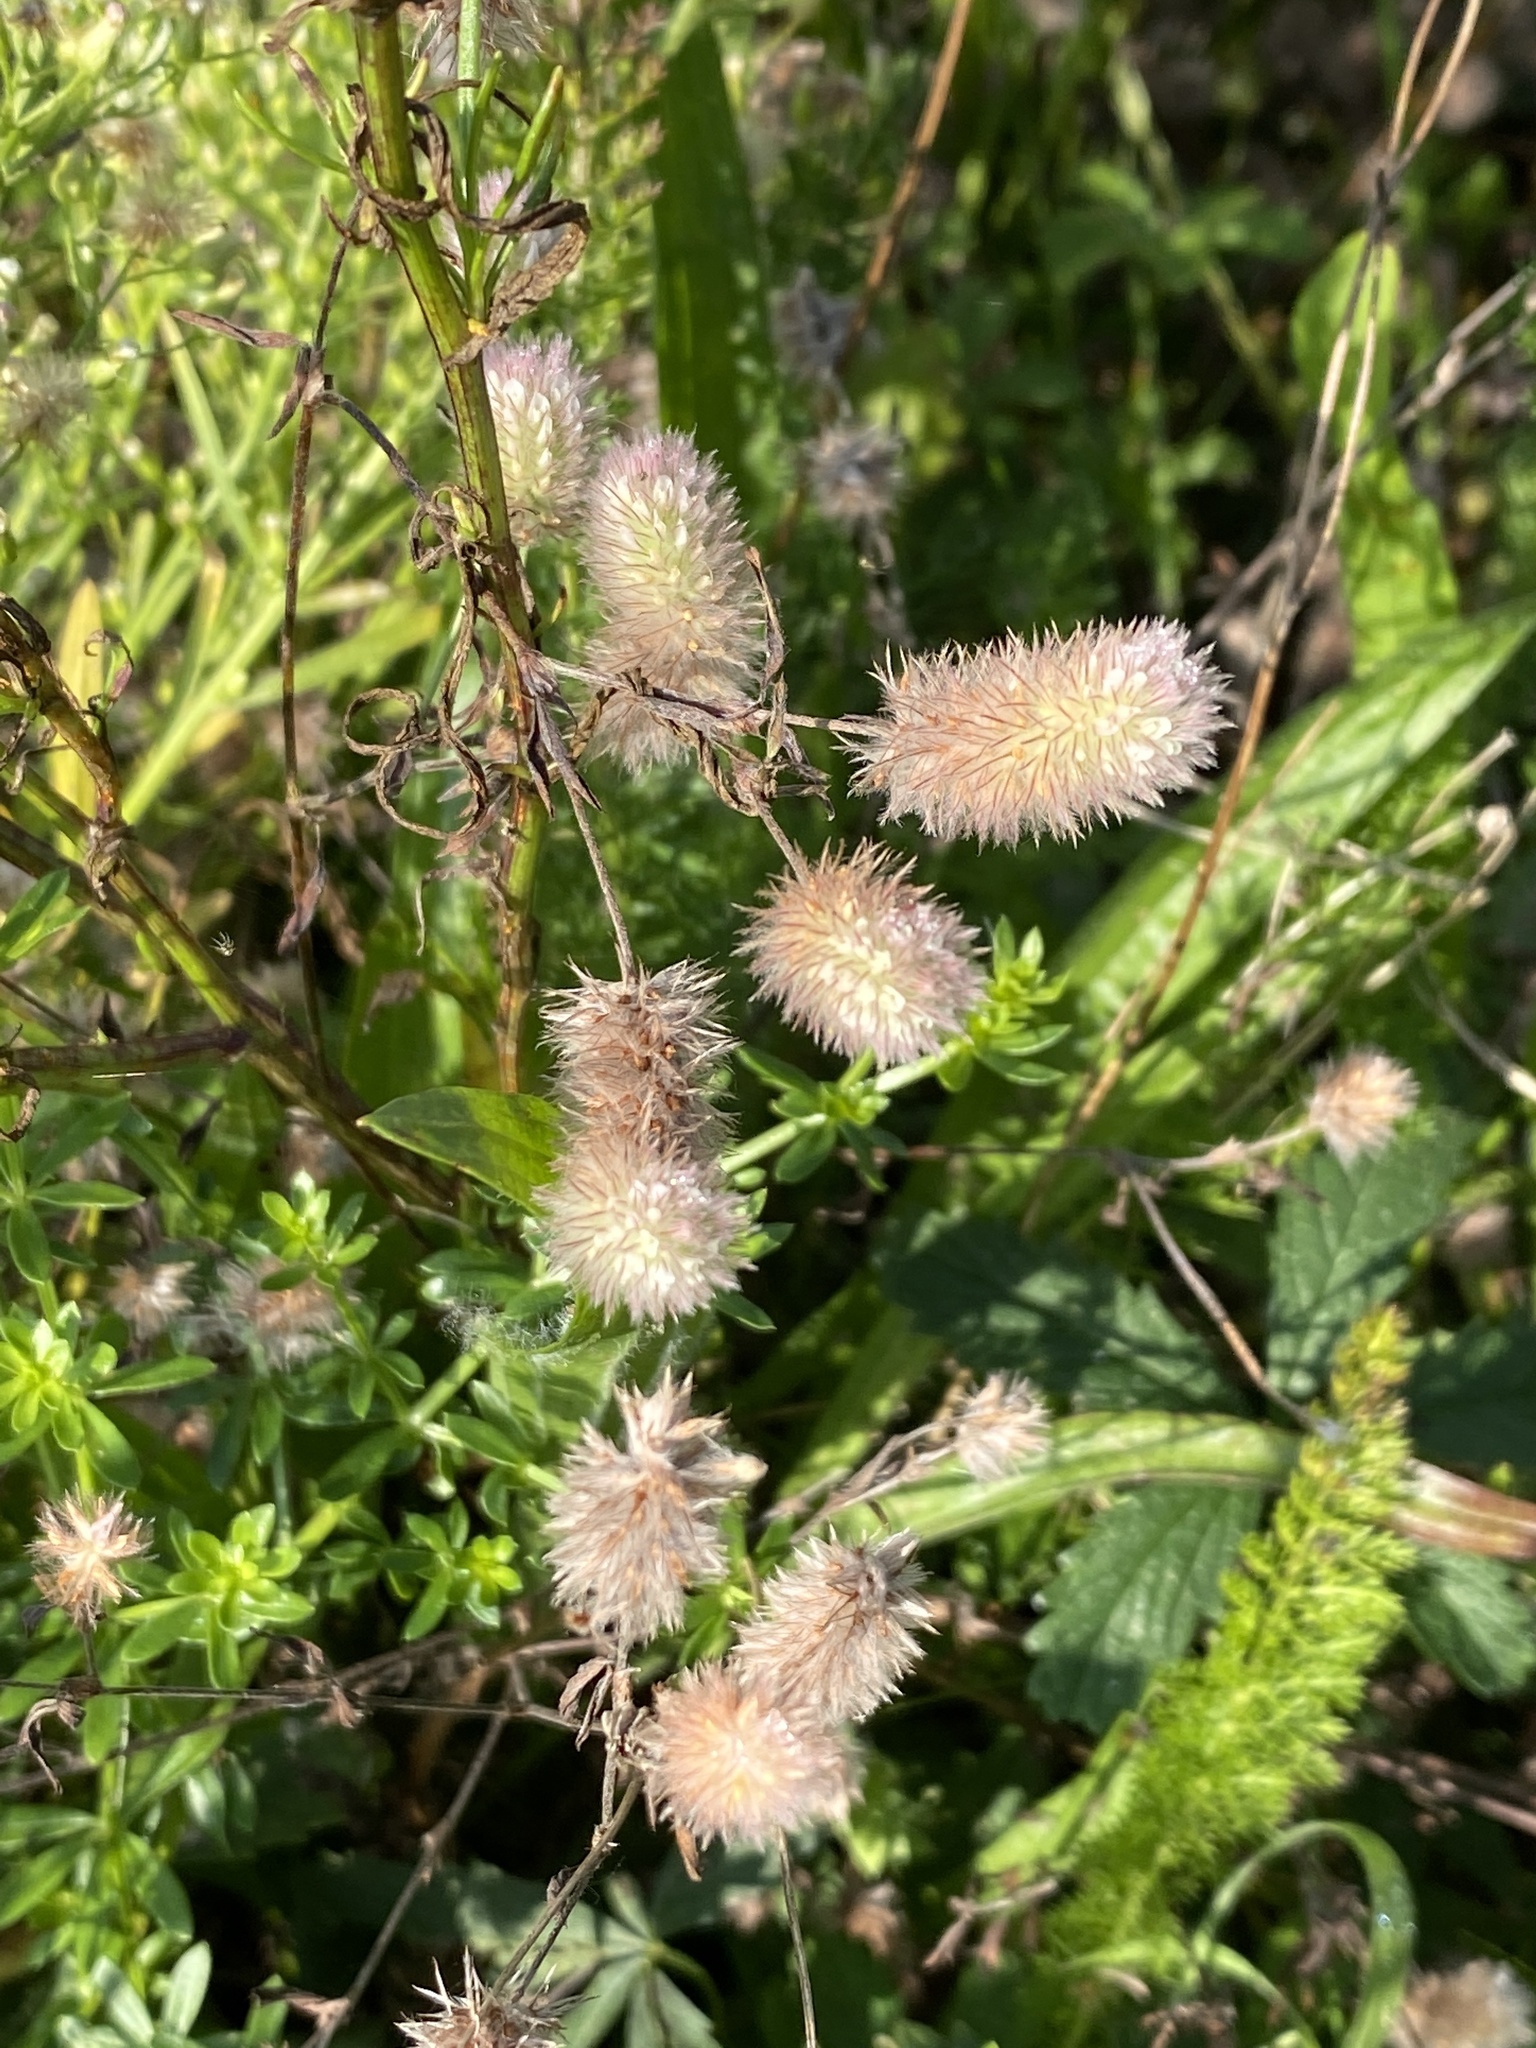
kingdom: Plantae
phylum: Tracheophyta
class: Magnoliopsida
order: Fabales
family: Fabaceae
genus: Trifolium
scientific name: Trifolium arvense
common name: Hare's-foot clover
